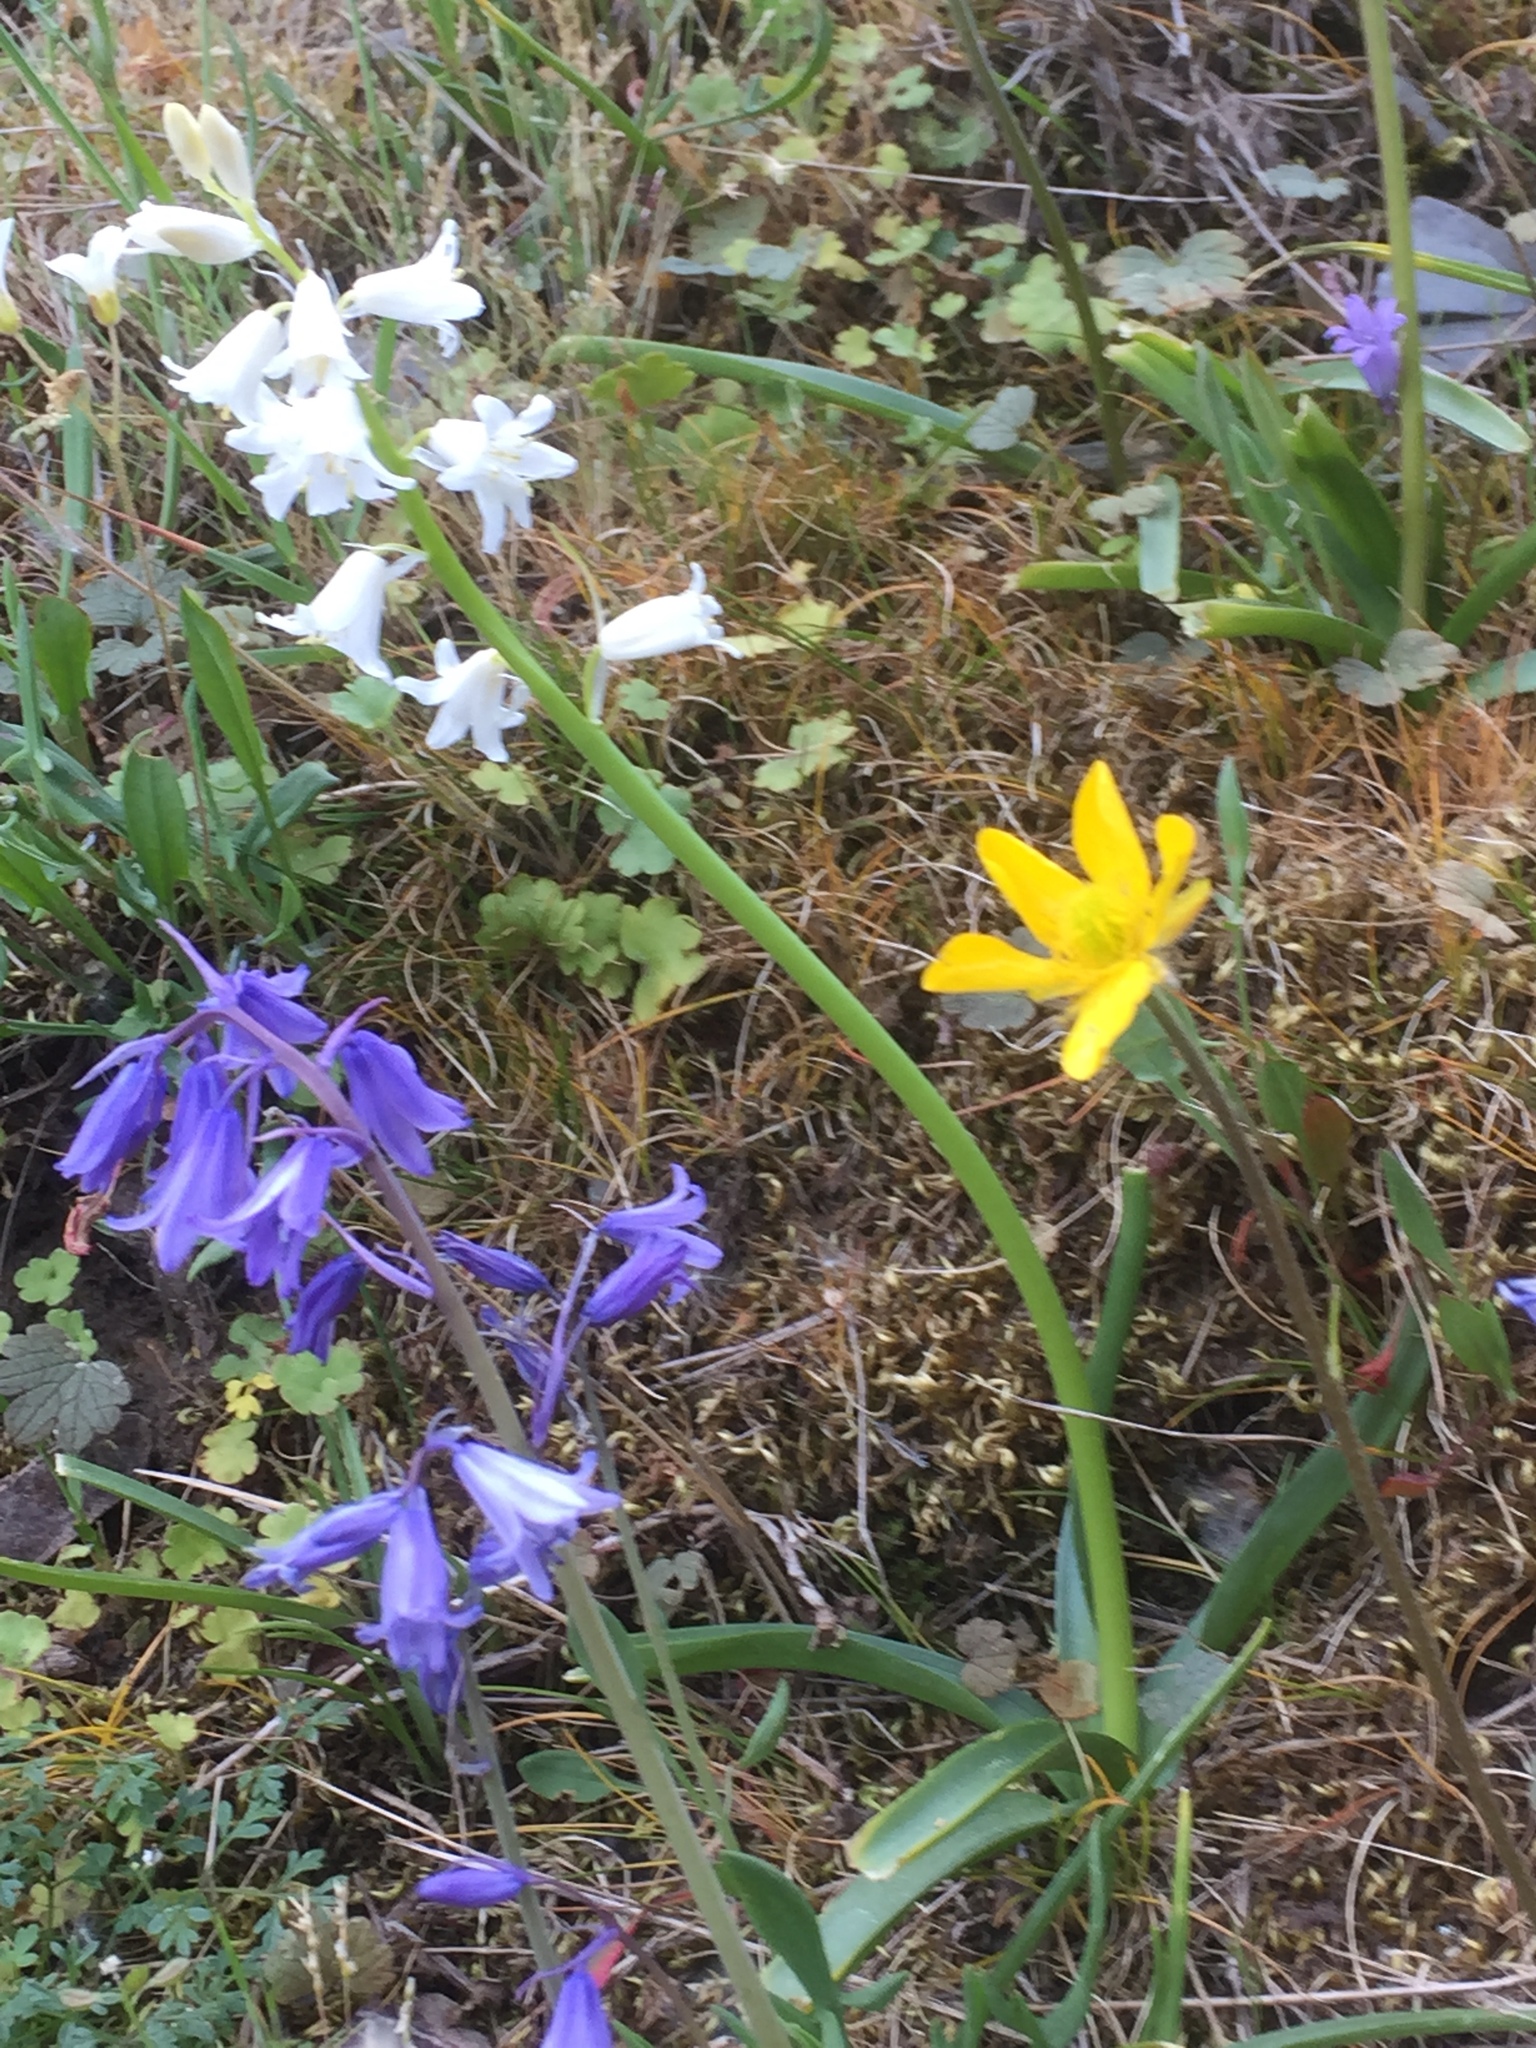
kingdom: Plantae
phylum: Tracheophyta
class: Liliopsida
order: Asparagales
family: Asparagaceae
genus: Hyacinthoides
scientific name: Hyacinthoides hispanica
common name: Spanish bluebell
